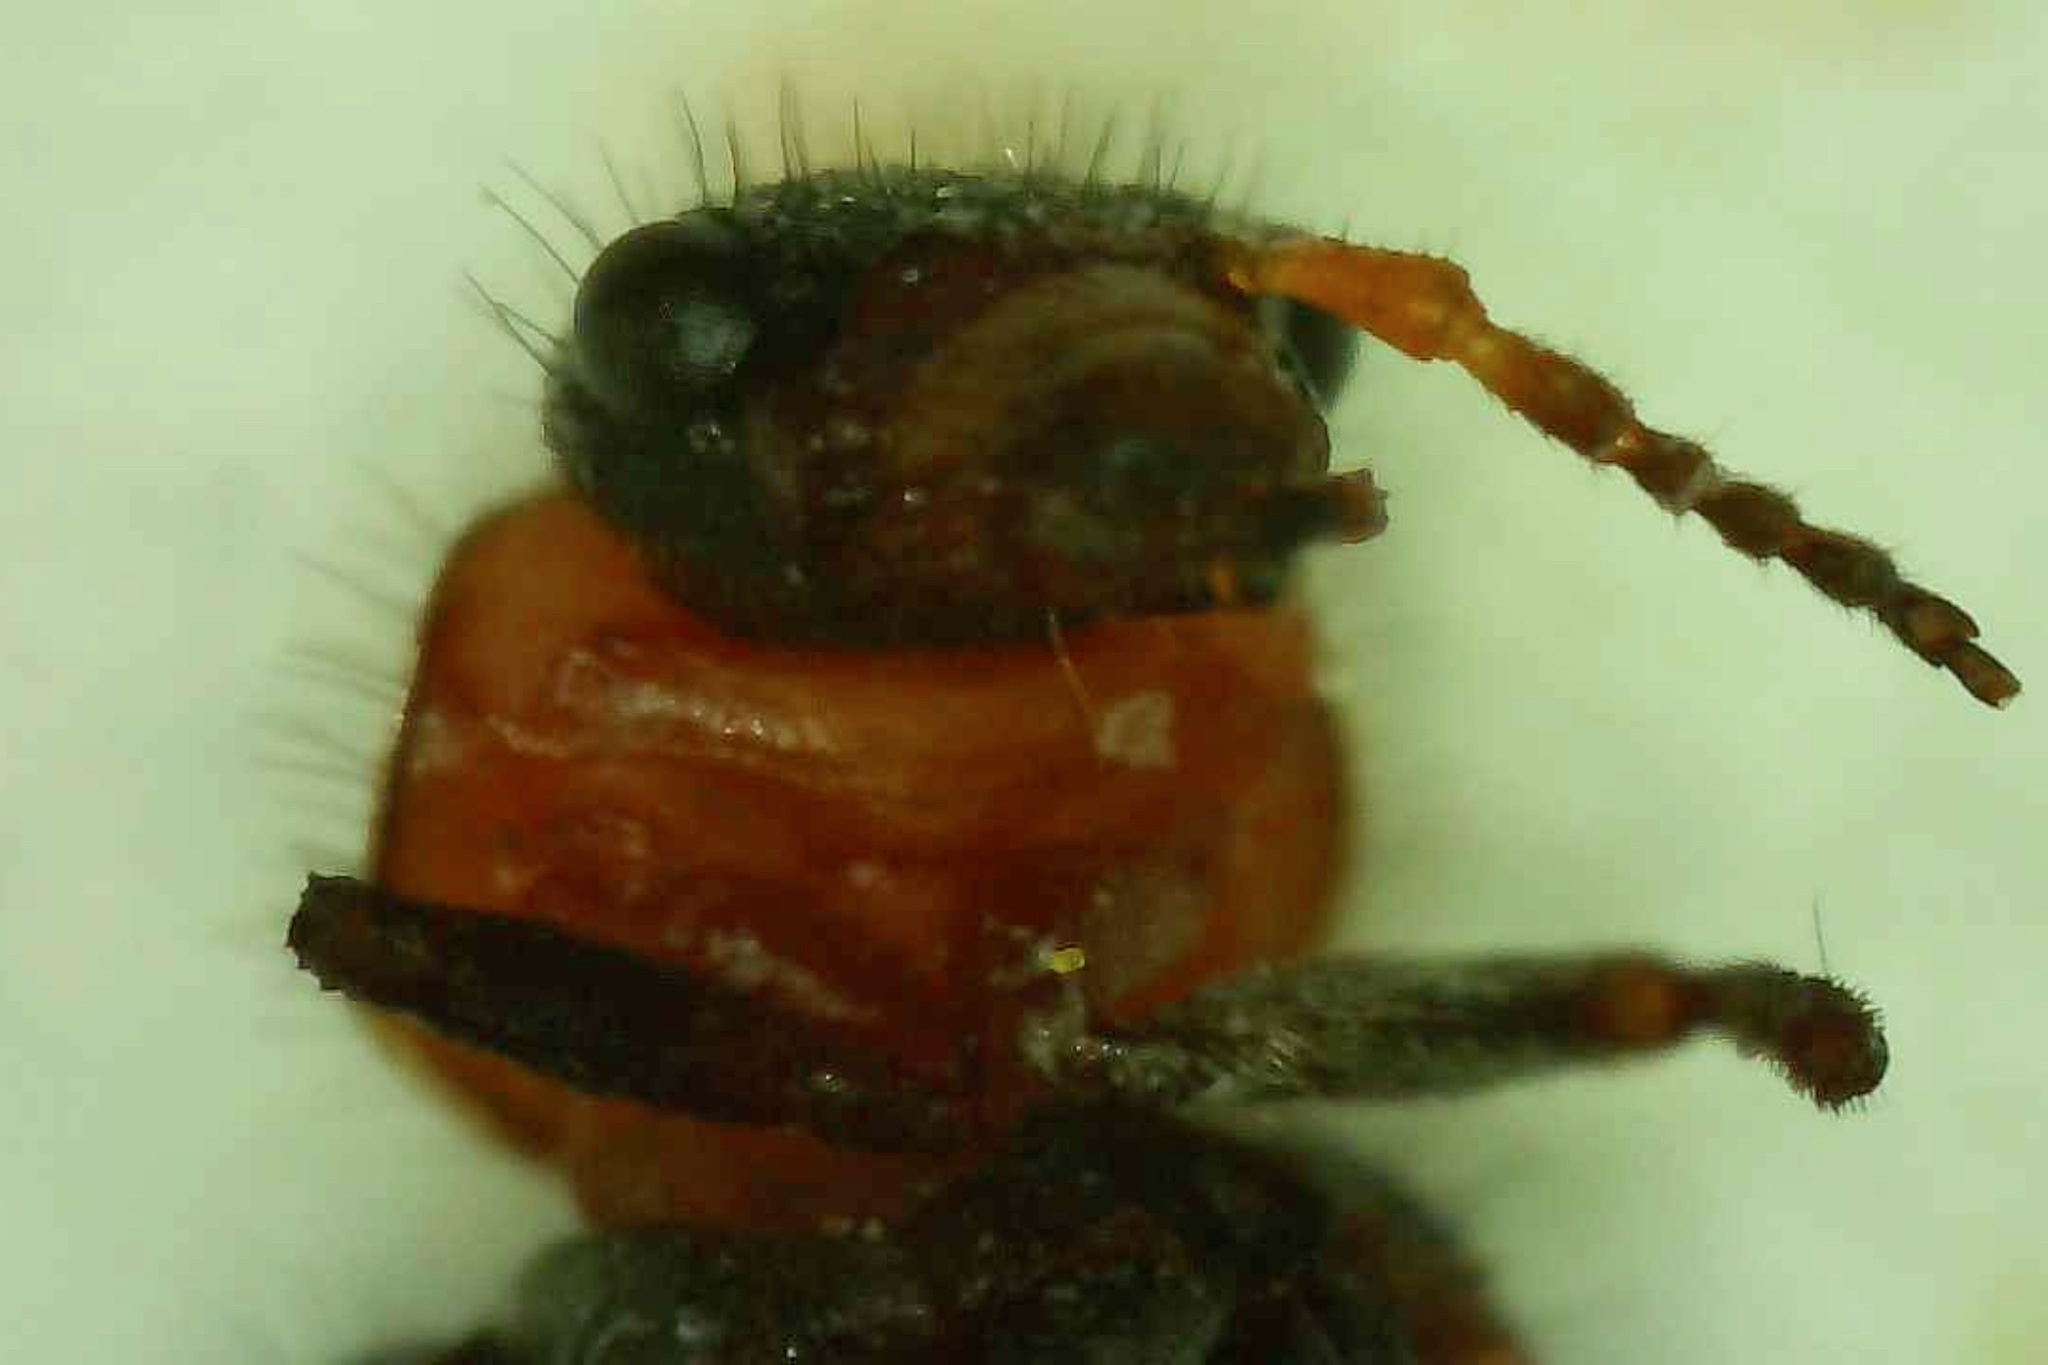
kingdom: Animalia
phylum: Arthropoda
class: Insecta
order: Coleoptera
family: Melyridae
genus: Collops
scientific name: Collops quadrimaculatus
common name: Four-spotted collops
